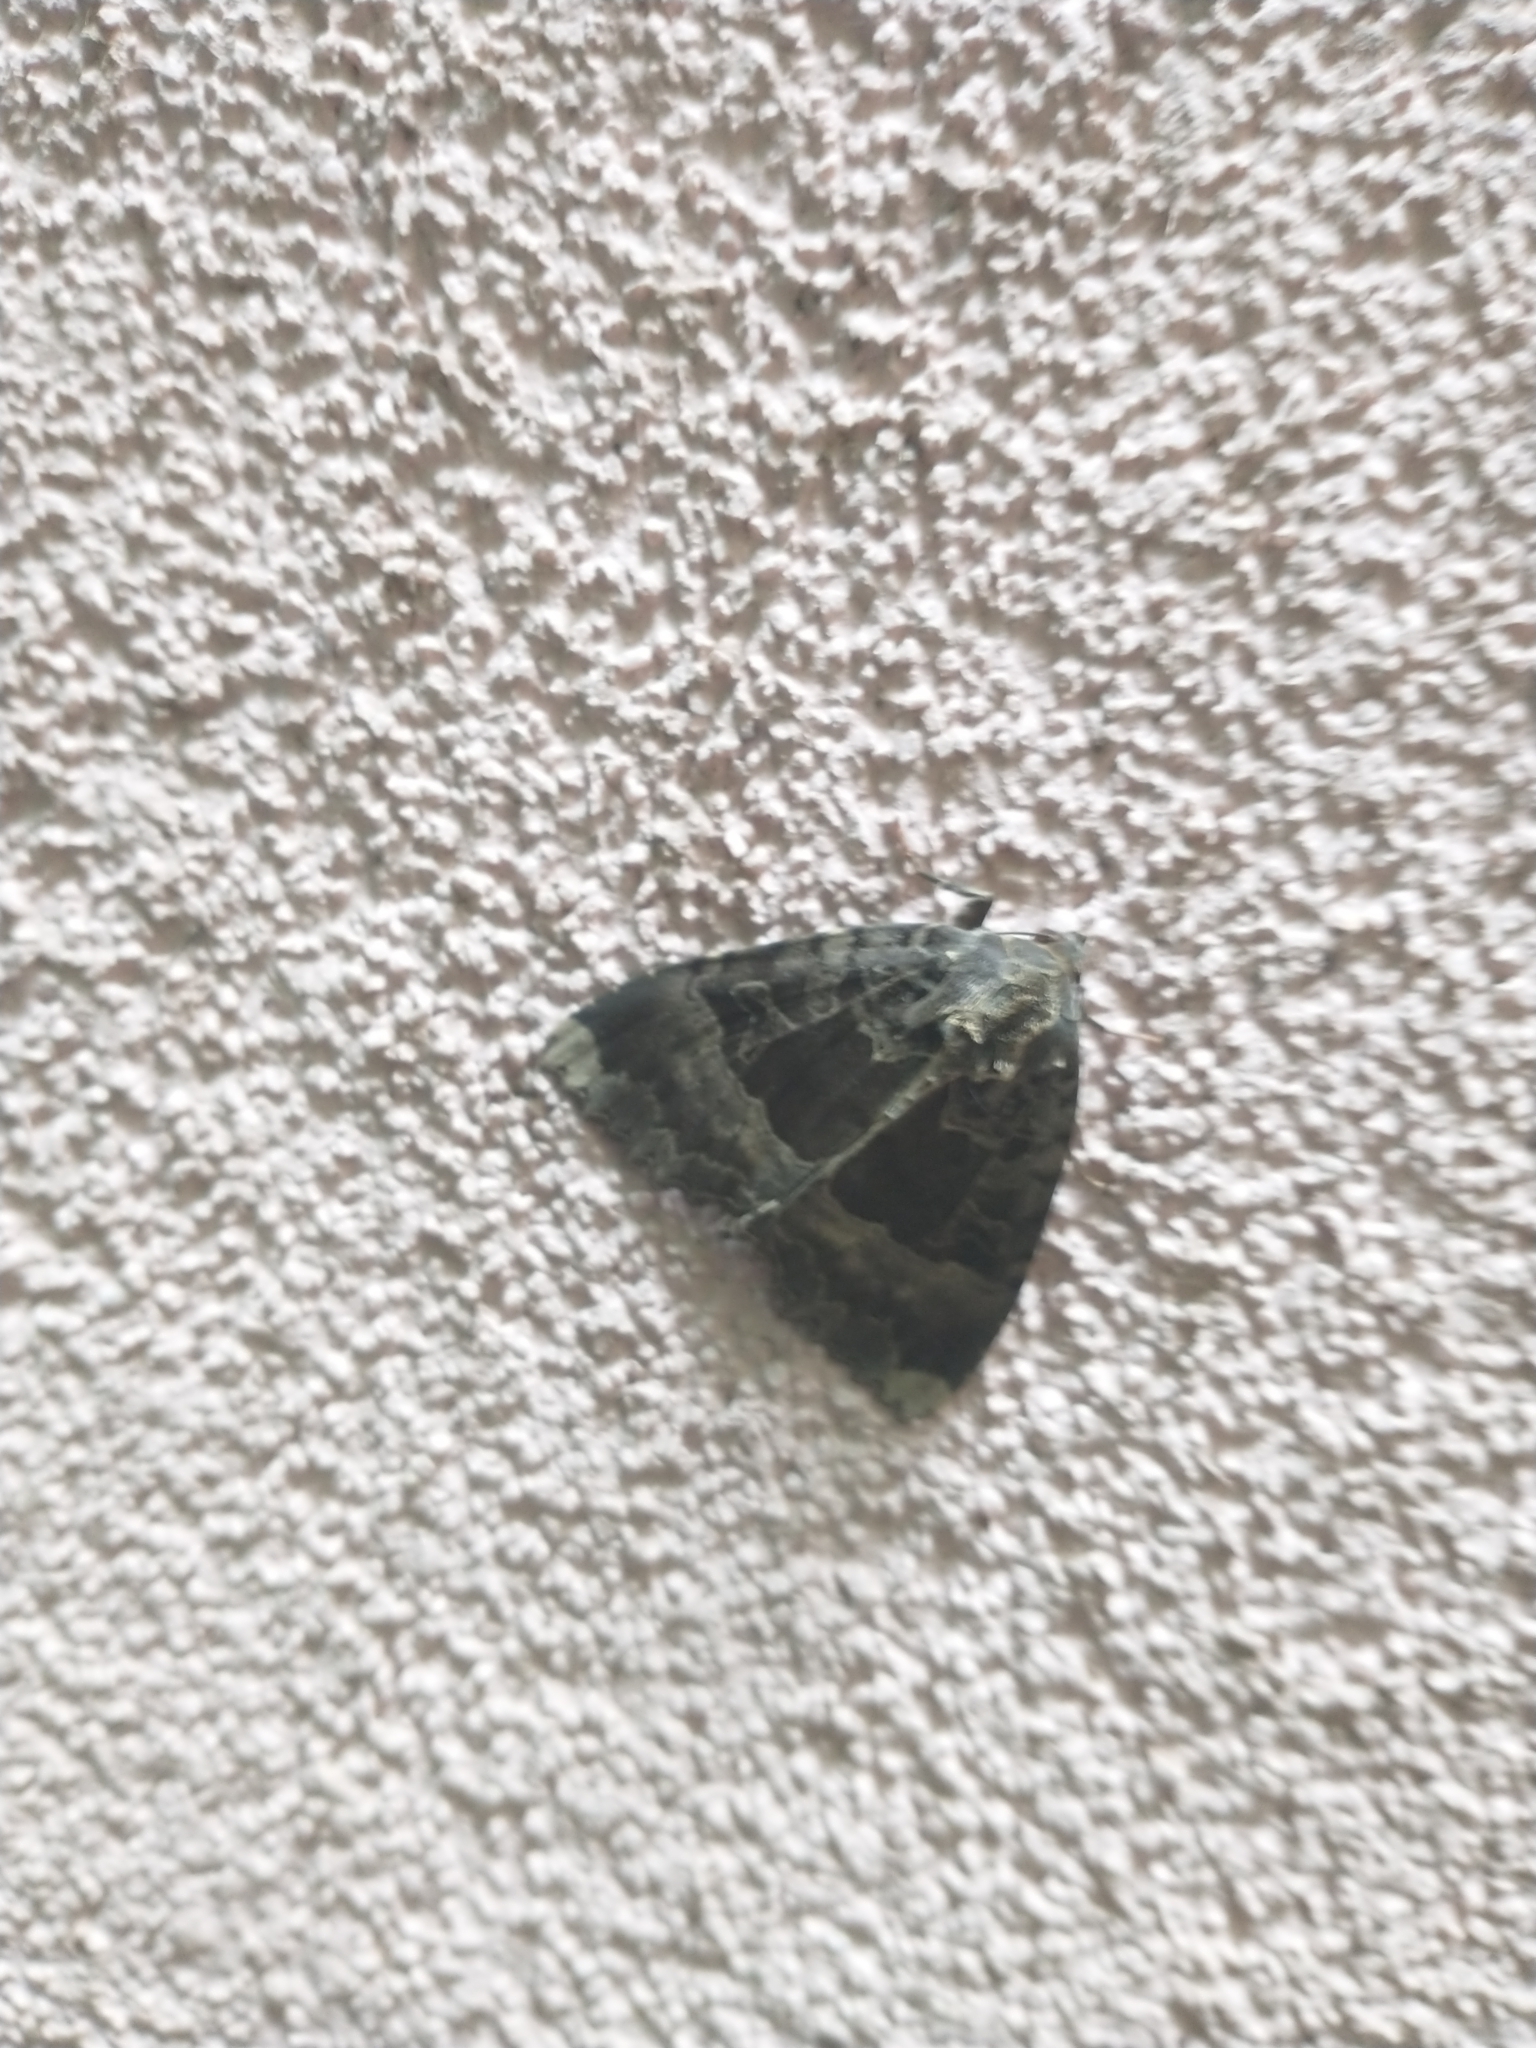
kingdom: Animalia
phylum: Arthropoda
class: Insecta
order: Lepidoptera
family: Noctuidae
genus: Mormo
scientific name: Mormo maura
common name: Old lady
